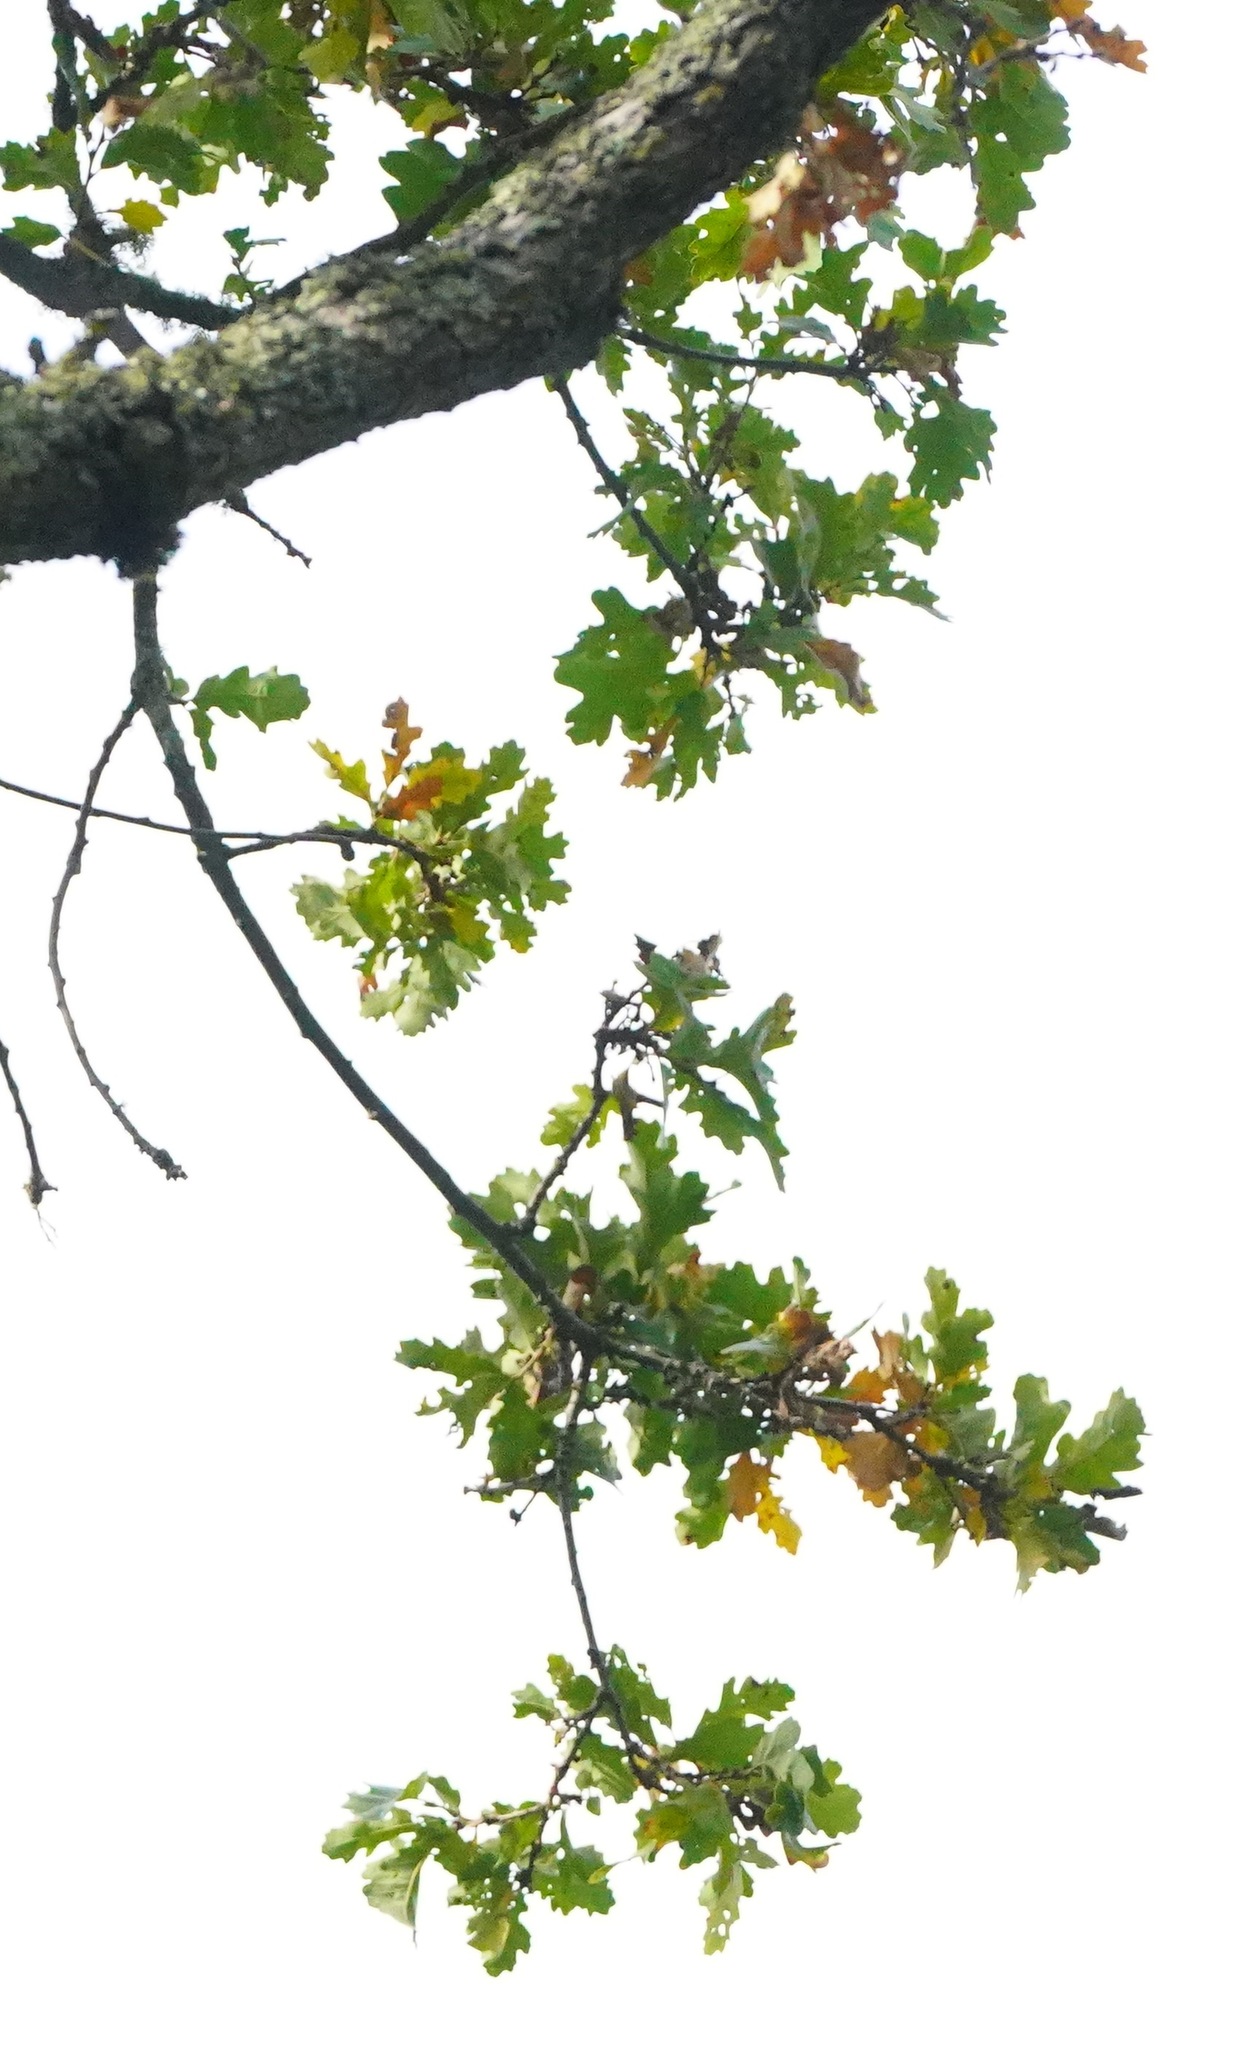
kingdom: Plantae
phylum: Tracheophyta
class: Magnoliopsida
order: Fagales
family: Fagaceae
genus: Quercus
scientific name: Quercus garryana
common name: Garry oak
